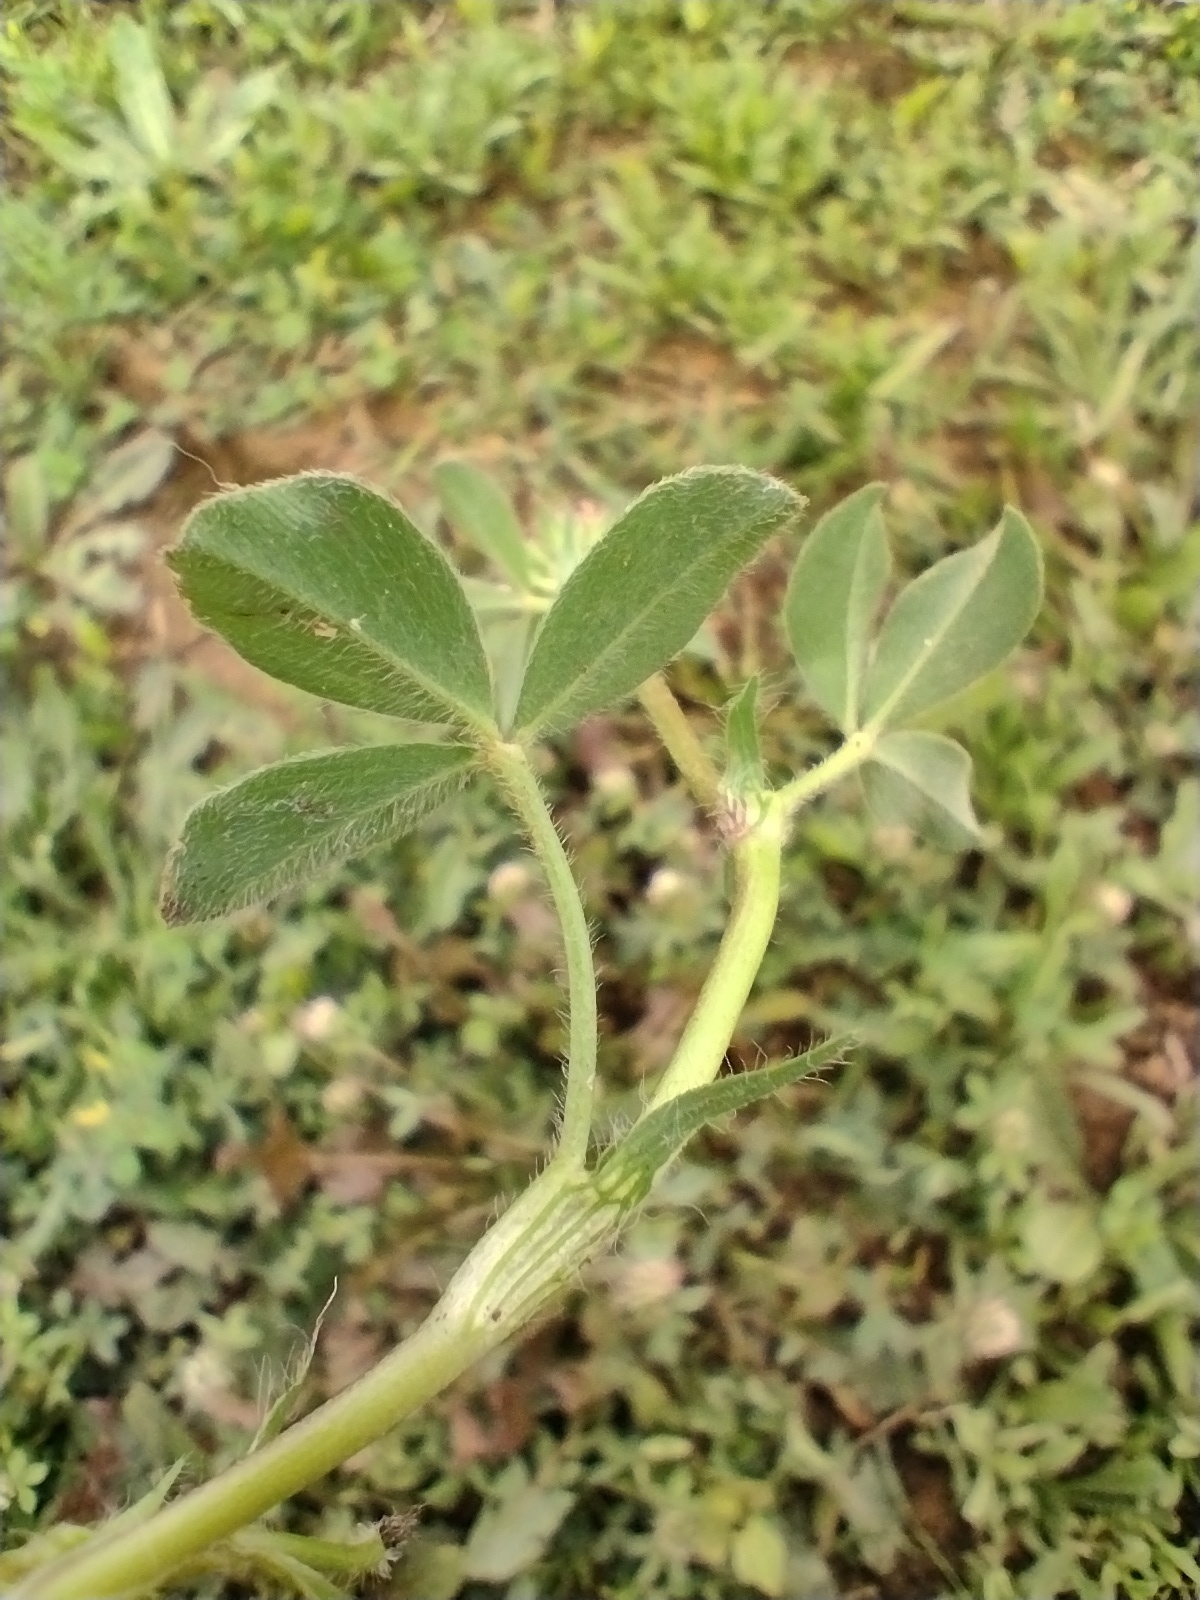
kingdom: Plantae
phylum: Tracheophyta
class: Magnoliopsida
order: Fabales
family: Fabaceae
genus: Trifolium
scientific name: Trifolium squamosum
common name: Sea clover
